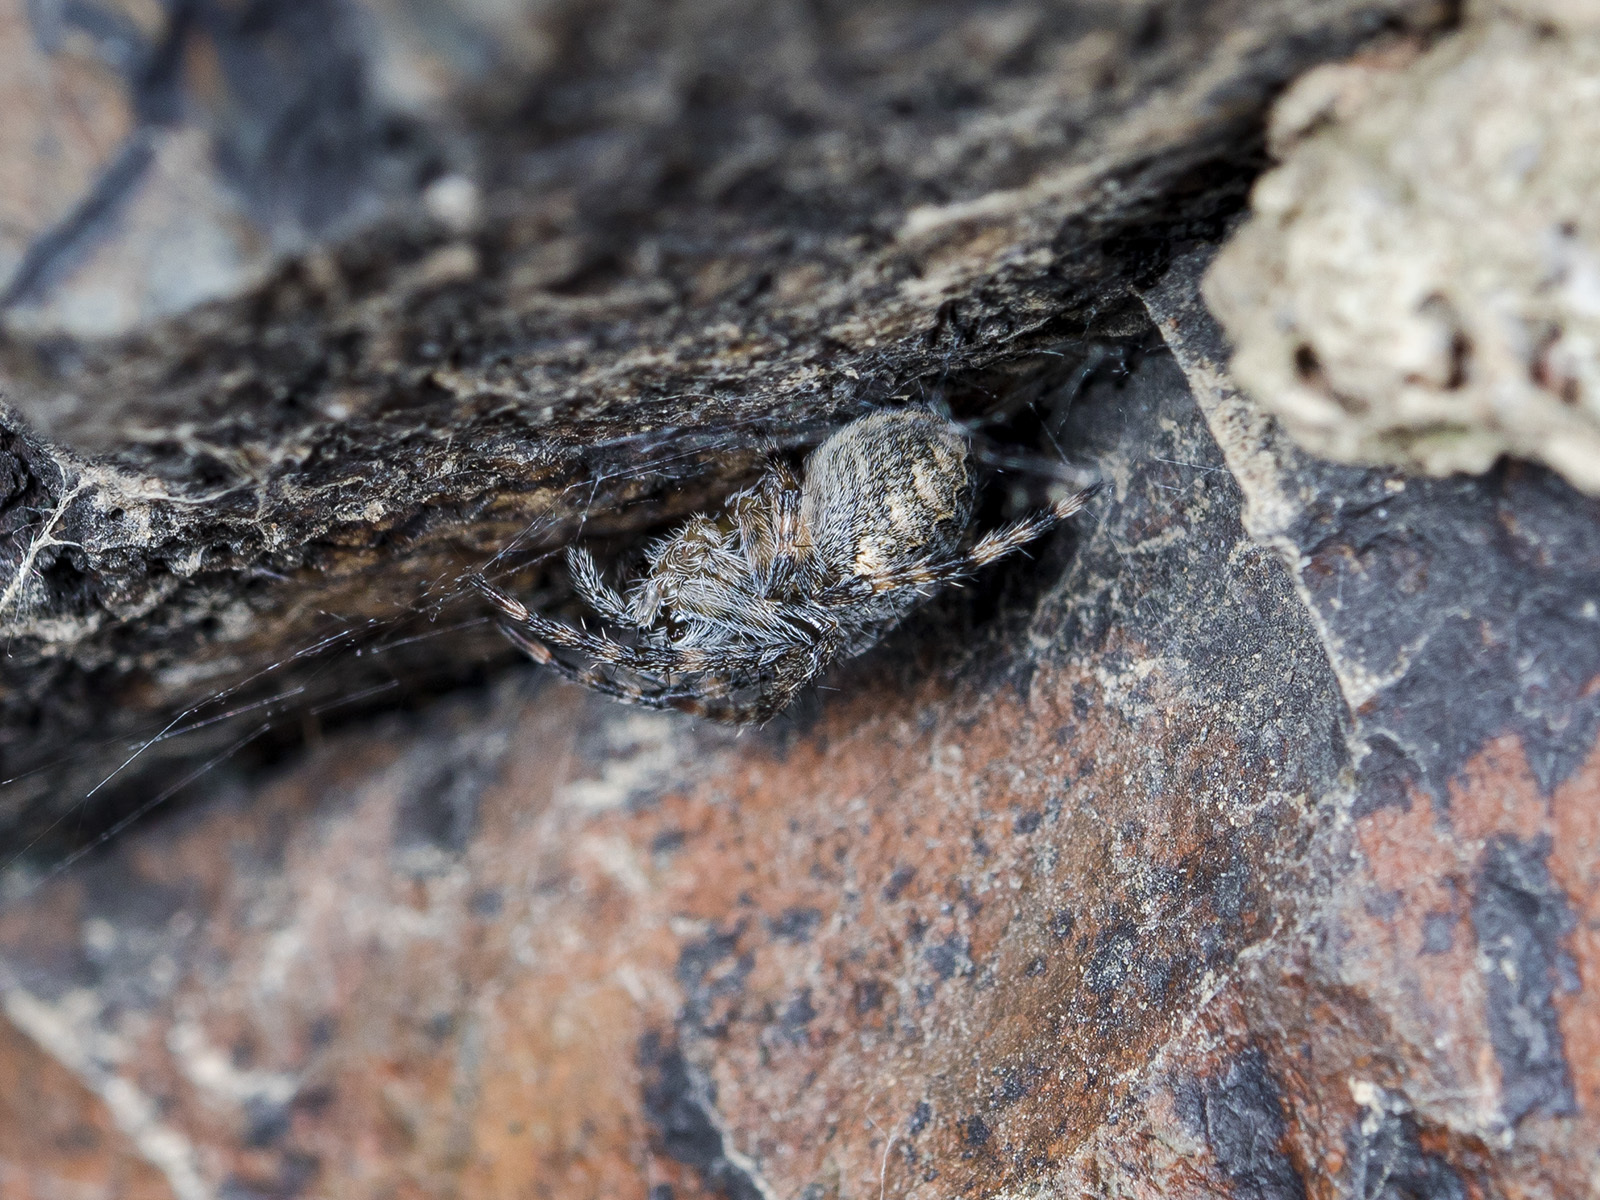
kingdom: Animalia
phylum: Arthropoda
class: Arachnida
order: Araneae
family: Araneidae
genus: Araneus
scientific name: Araneus miquanensis
